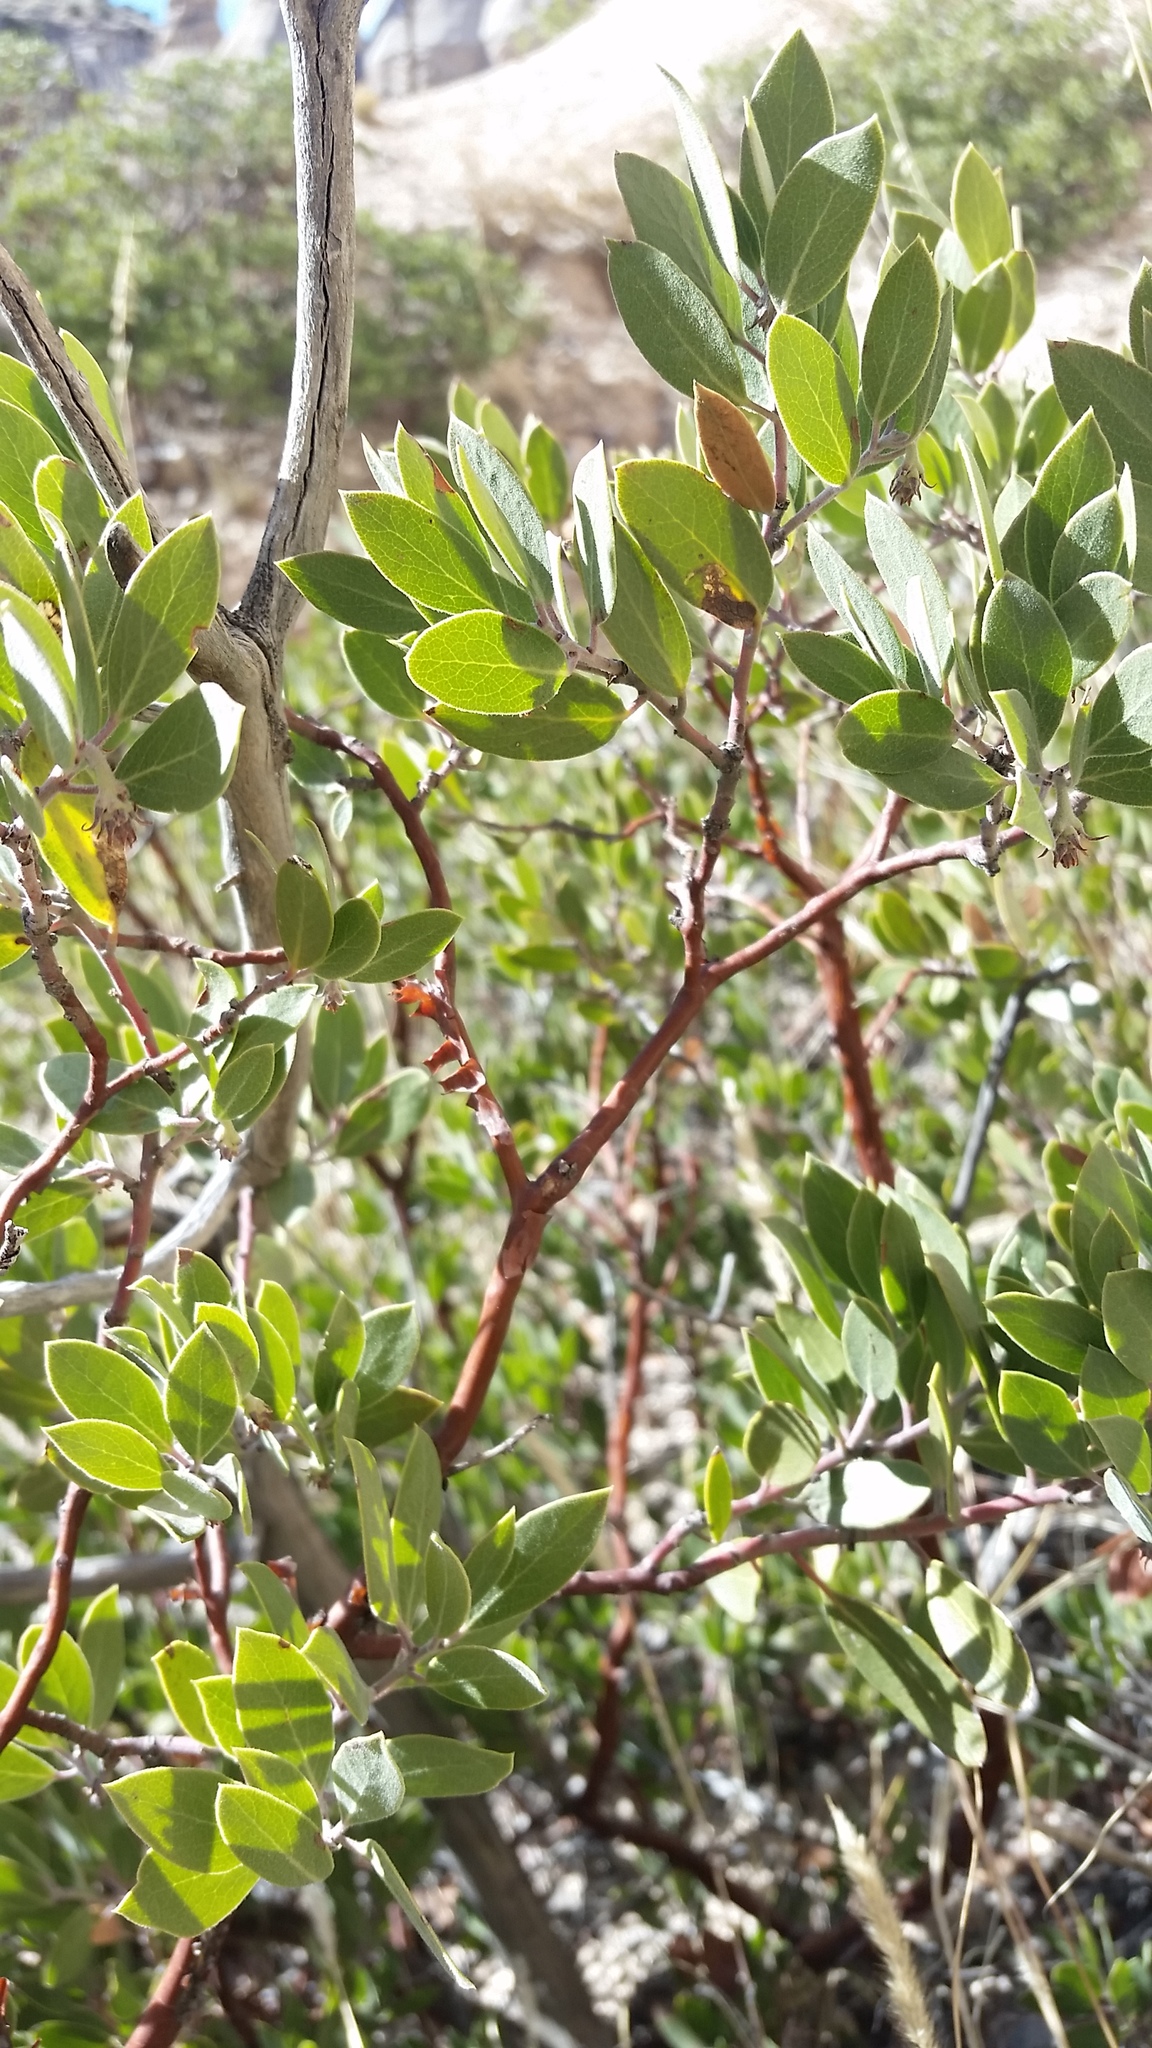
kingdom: Plantae
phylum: Tracheophyta
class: Magnoliopsida
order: Ericales
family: Ericaceae
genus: Arctostaphylos
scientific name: Arctostaphylos pungens
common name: Mexican manzanita
